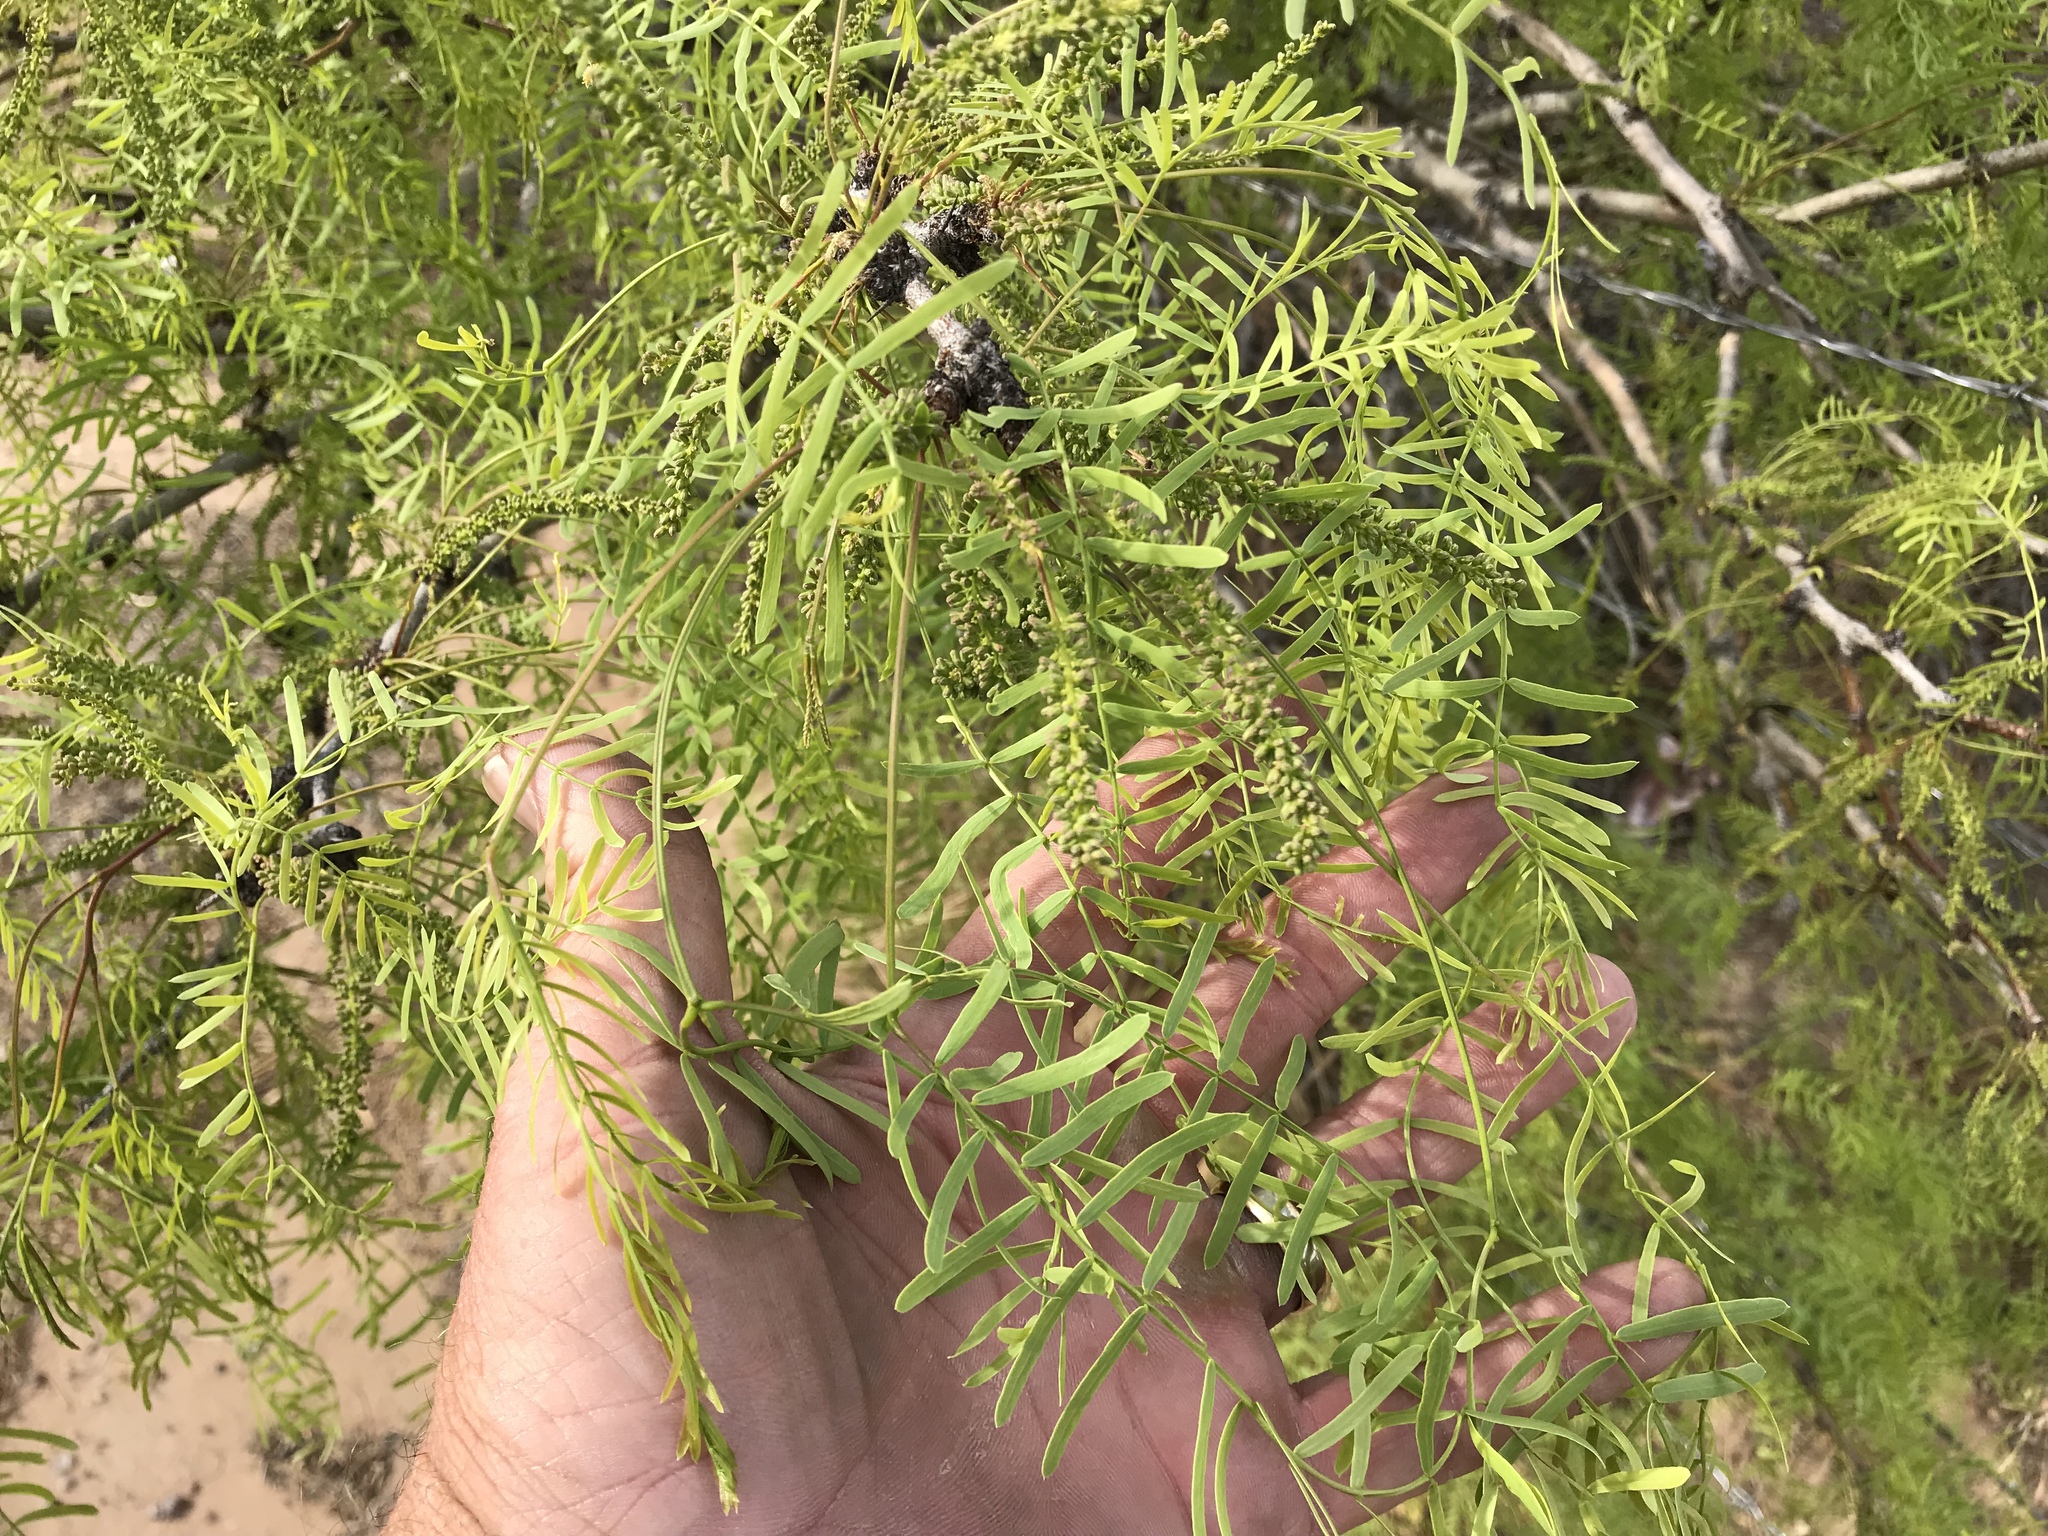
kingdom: Plantae
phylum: Tracheophyta
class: Magnoliopsida
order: Fabales
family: Fabaceae
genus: Prosopis
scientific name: Prosopis glandulosa
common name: Honey mesquite
